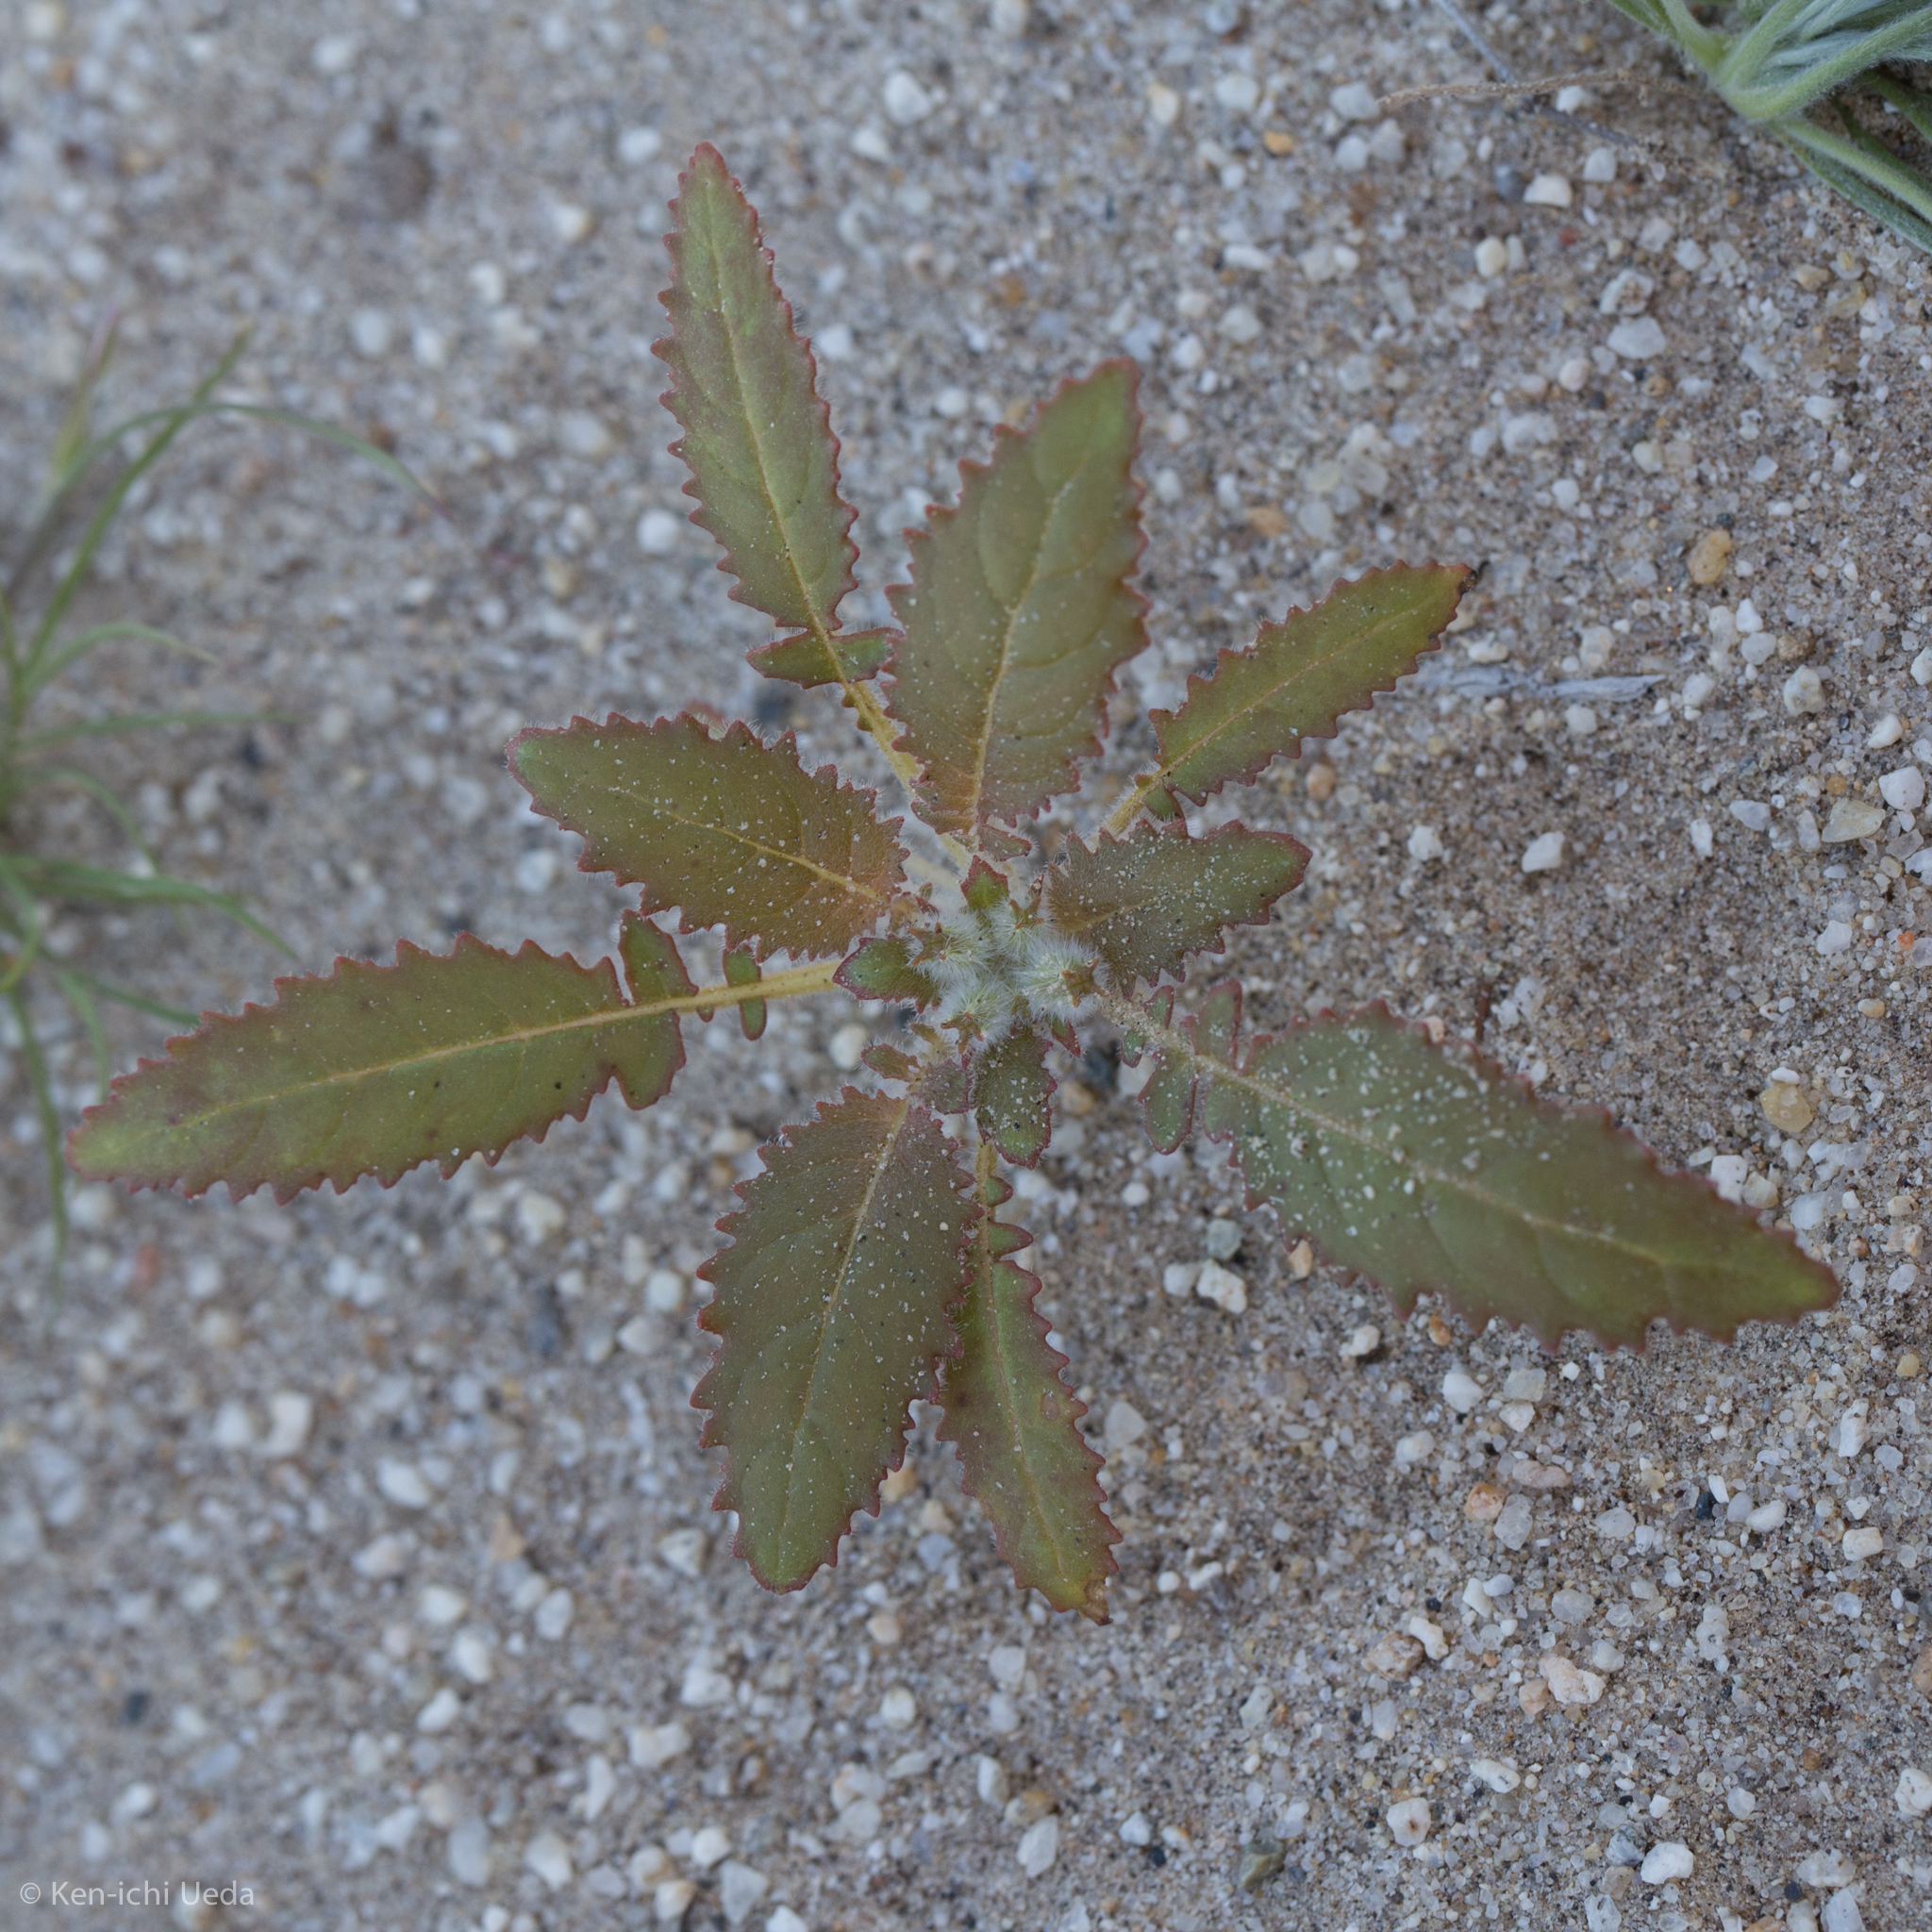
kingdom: Plantae
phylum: Tracheophyta
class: Magnoliopsida
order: Myrtales
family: Onagraceae
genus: Chylismia
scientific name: Chylismia claviformis
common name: Browneyes
